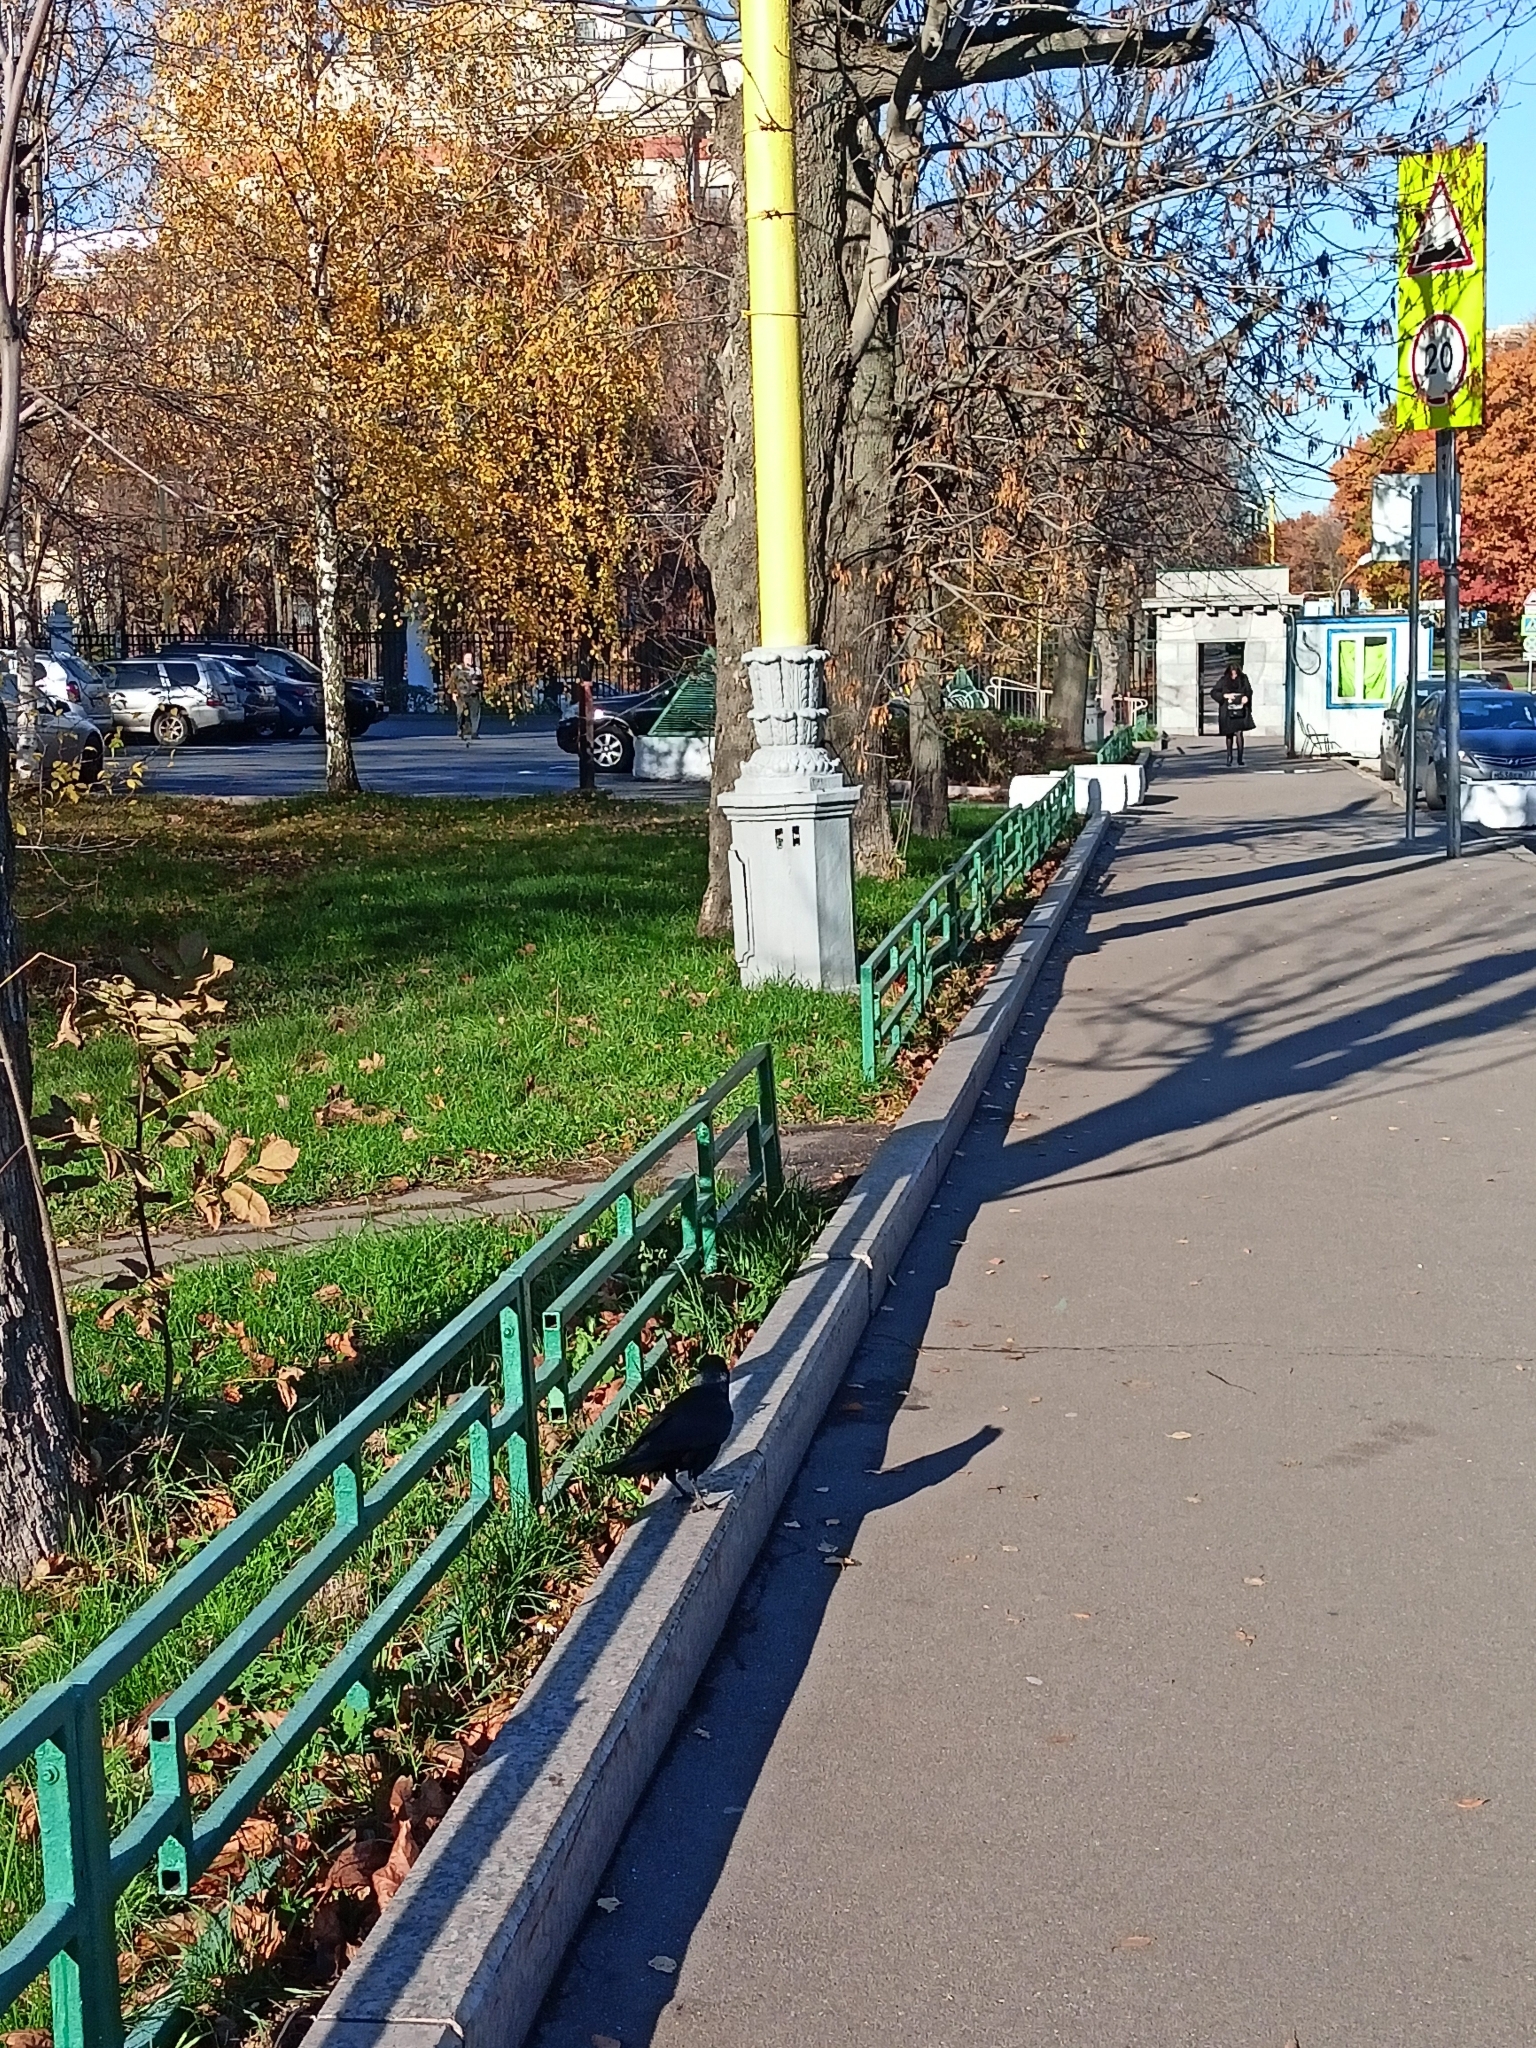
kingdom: Animalia
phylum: Chordata
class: Aves
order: Passeriformes
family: Corvidae
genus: Corvus
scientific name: Corvus frugilegus
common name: Rook
